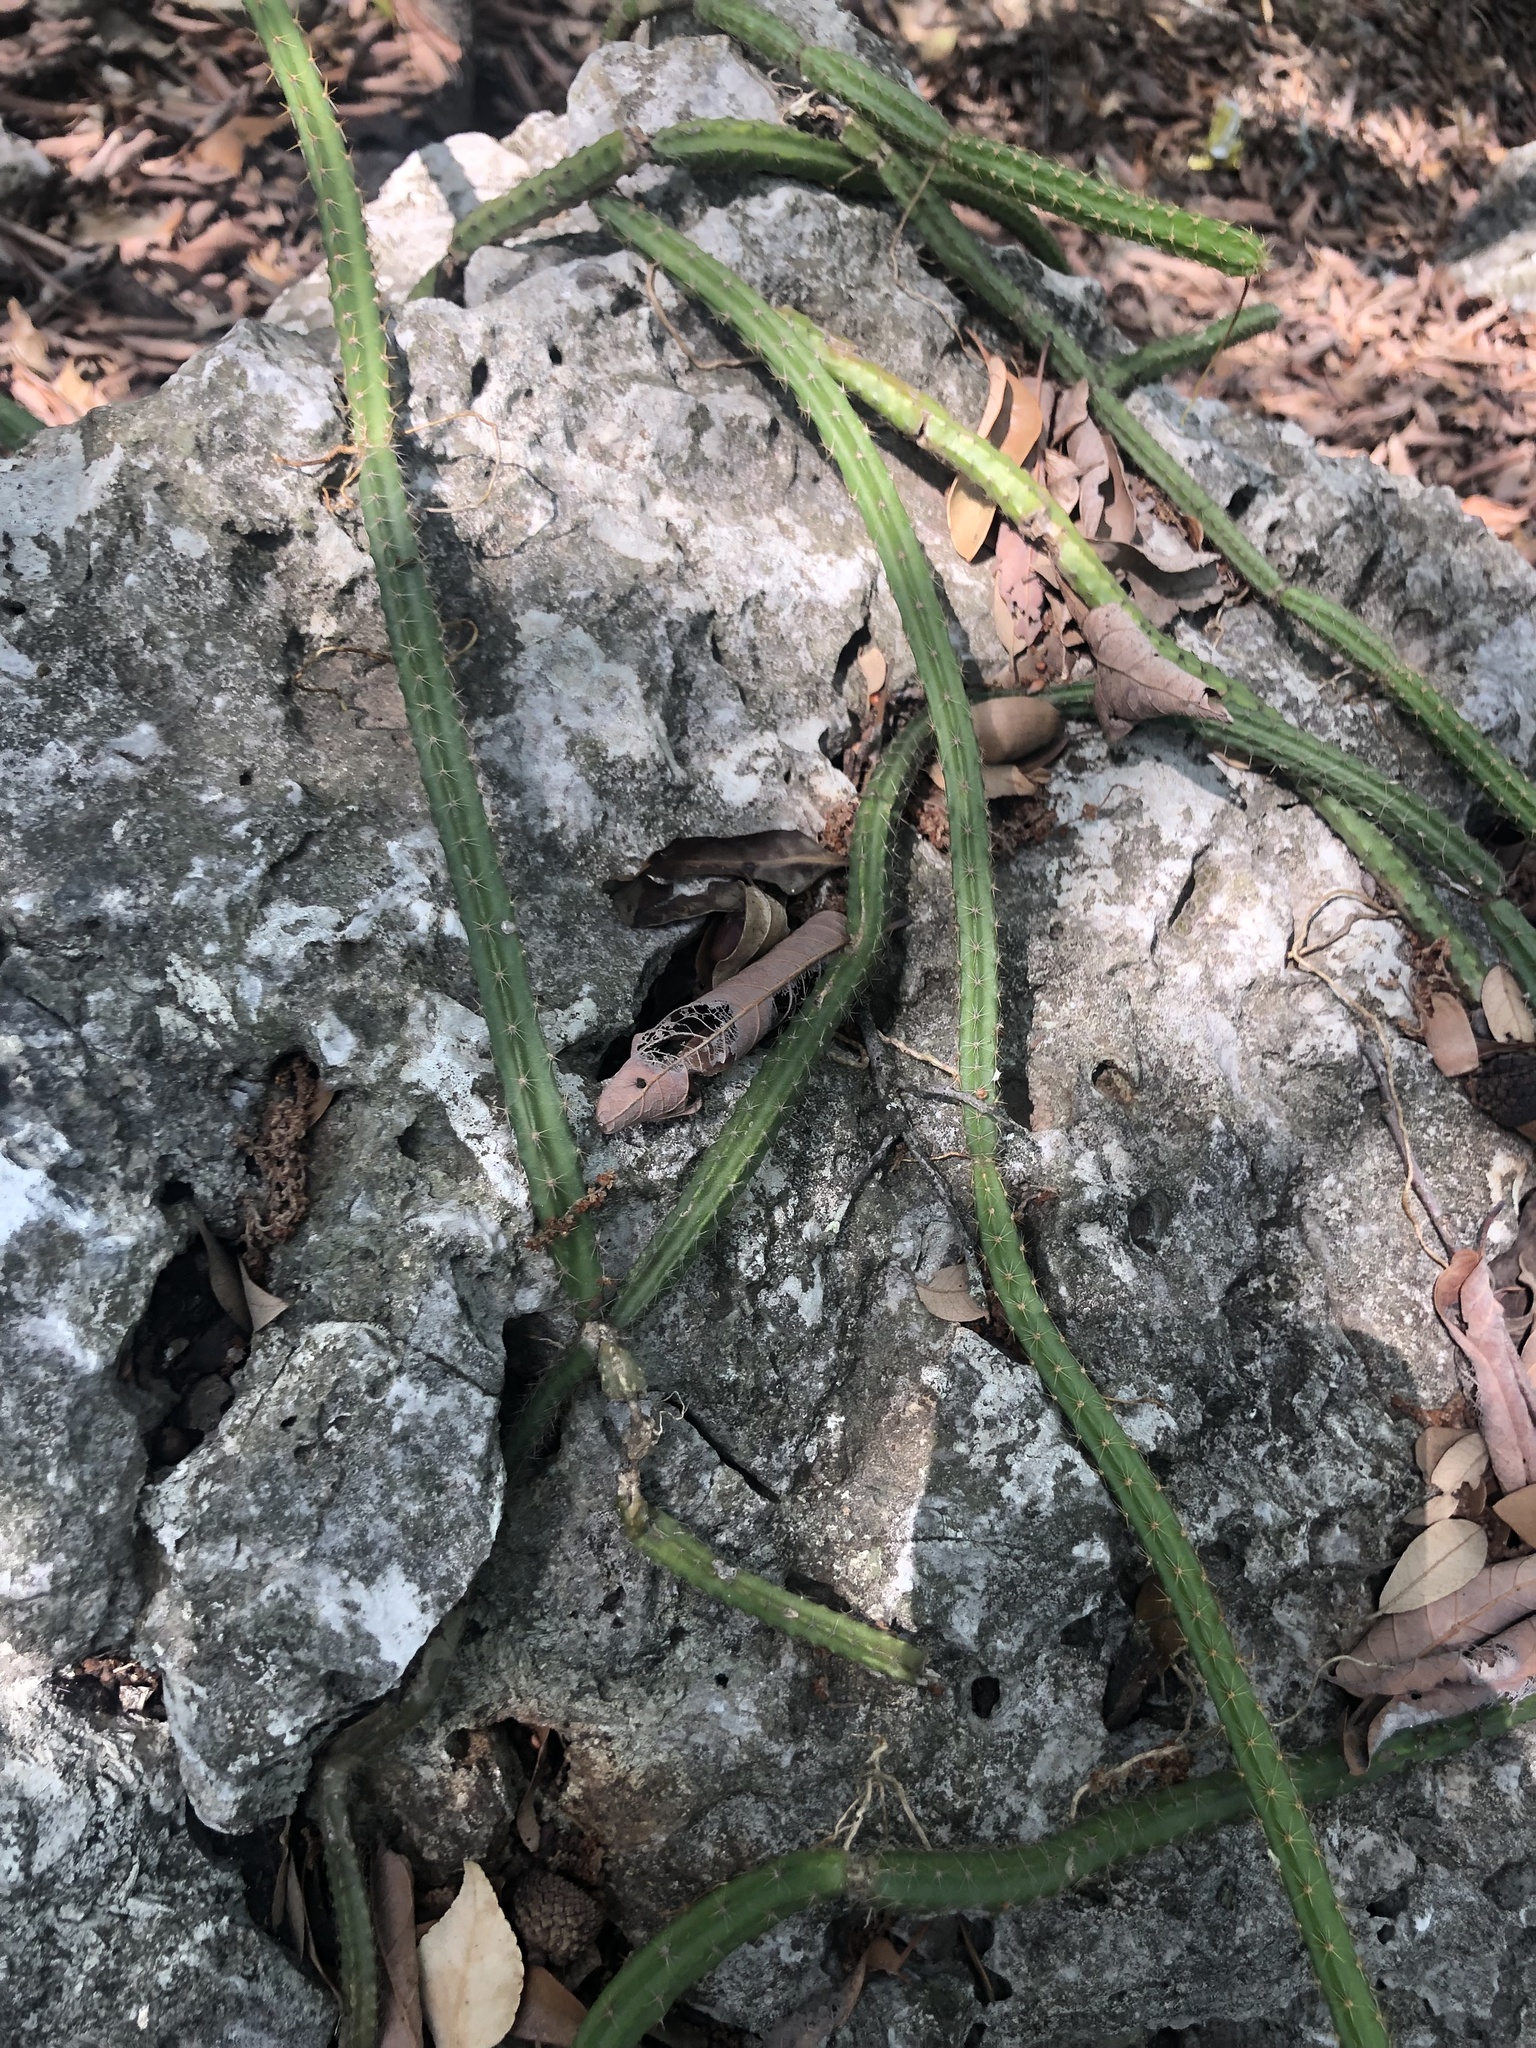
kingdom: Plantae
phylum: Tracheophyta
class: Magnoliopsida
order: Caryophyllales
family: Cactaceae
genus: Selenicereus
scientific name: Selenicereus spinulosus
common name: Nightblooming cereus
